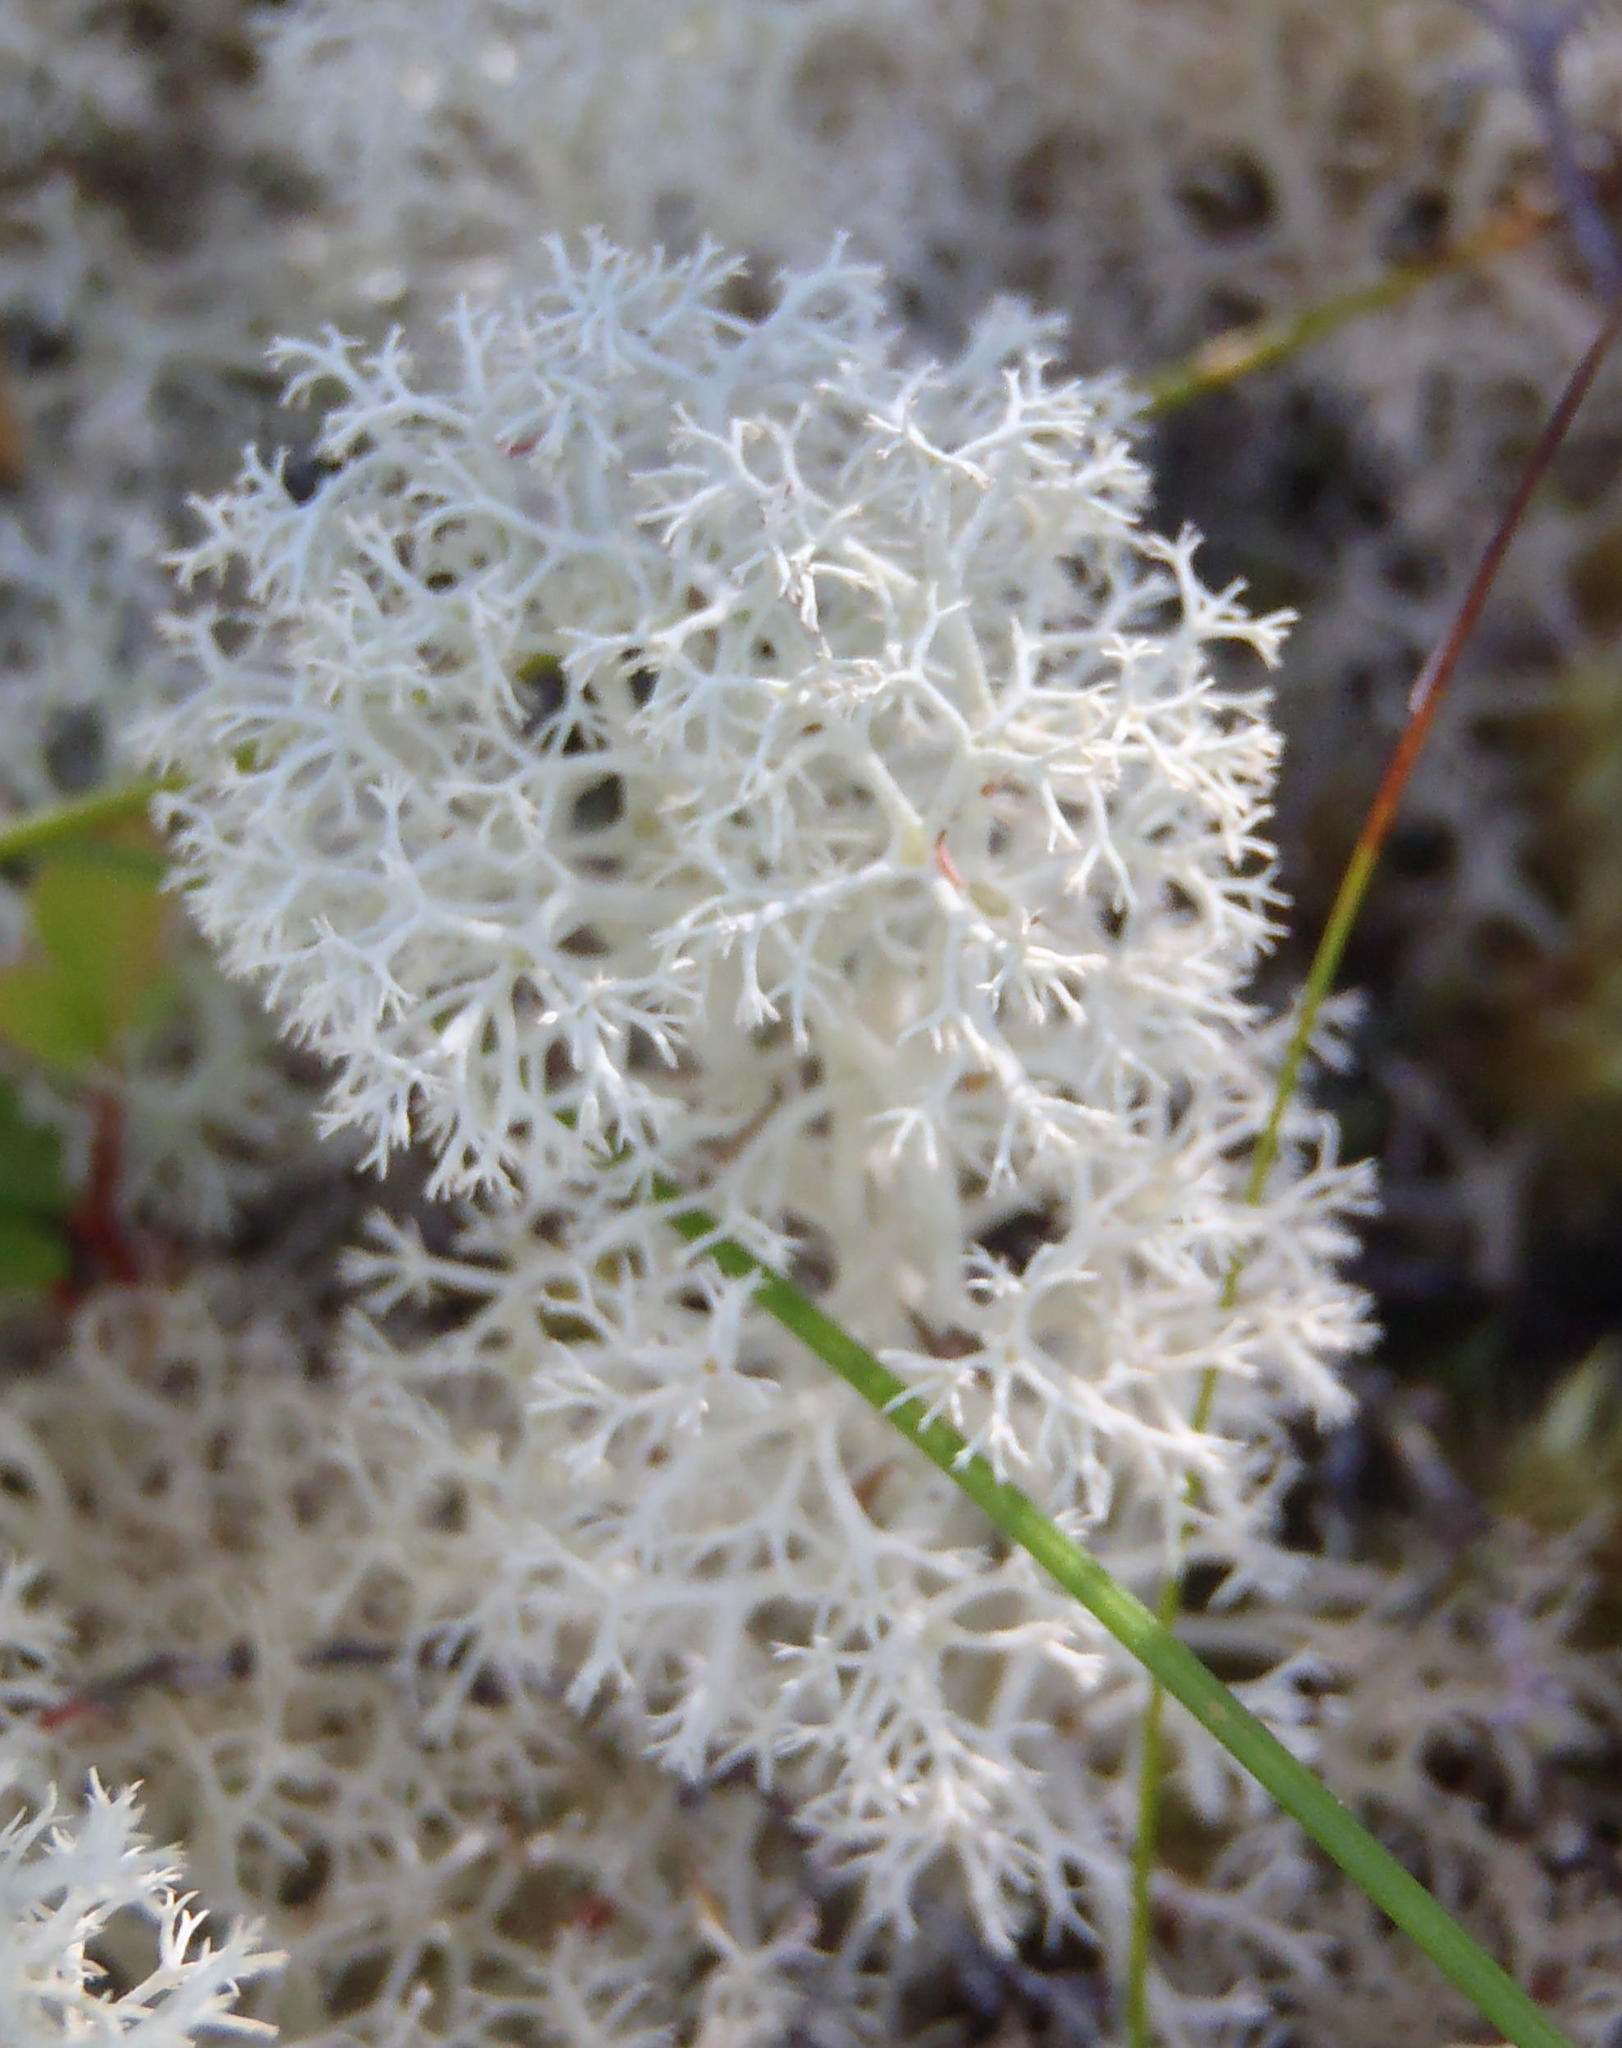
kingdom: Fungi
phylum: Ascomycota
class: Lecanoromycetes
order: Lecanorales
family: Cladoniaceae
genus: Cladonia
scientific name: Cladonia confusa
